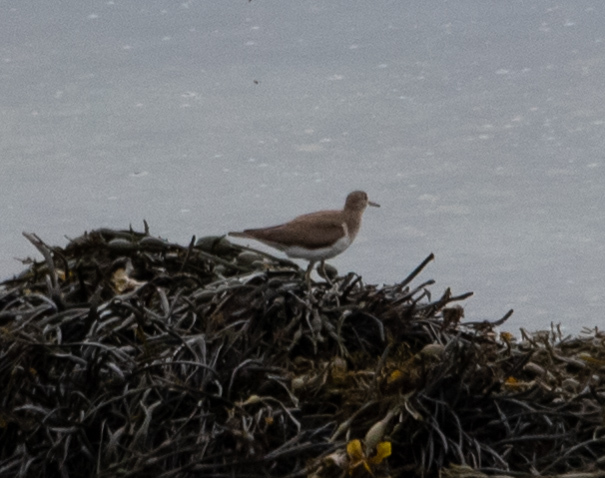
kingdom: Animalia
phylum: Chordata
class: Aves
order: Charadriiformes
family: Scolopacidae
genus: Actitis
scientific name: Actitis hypoleucos
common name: Common sandpiper
